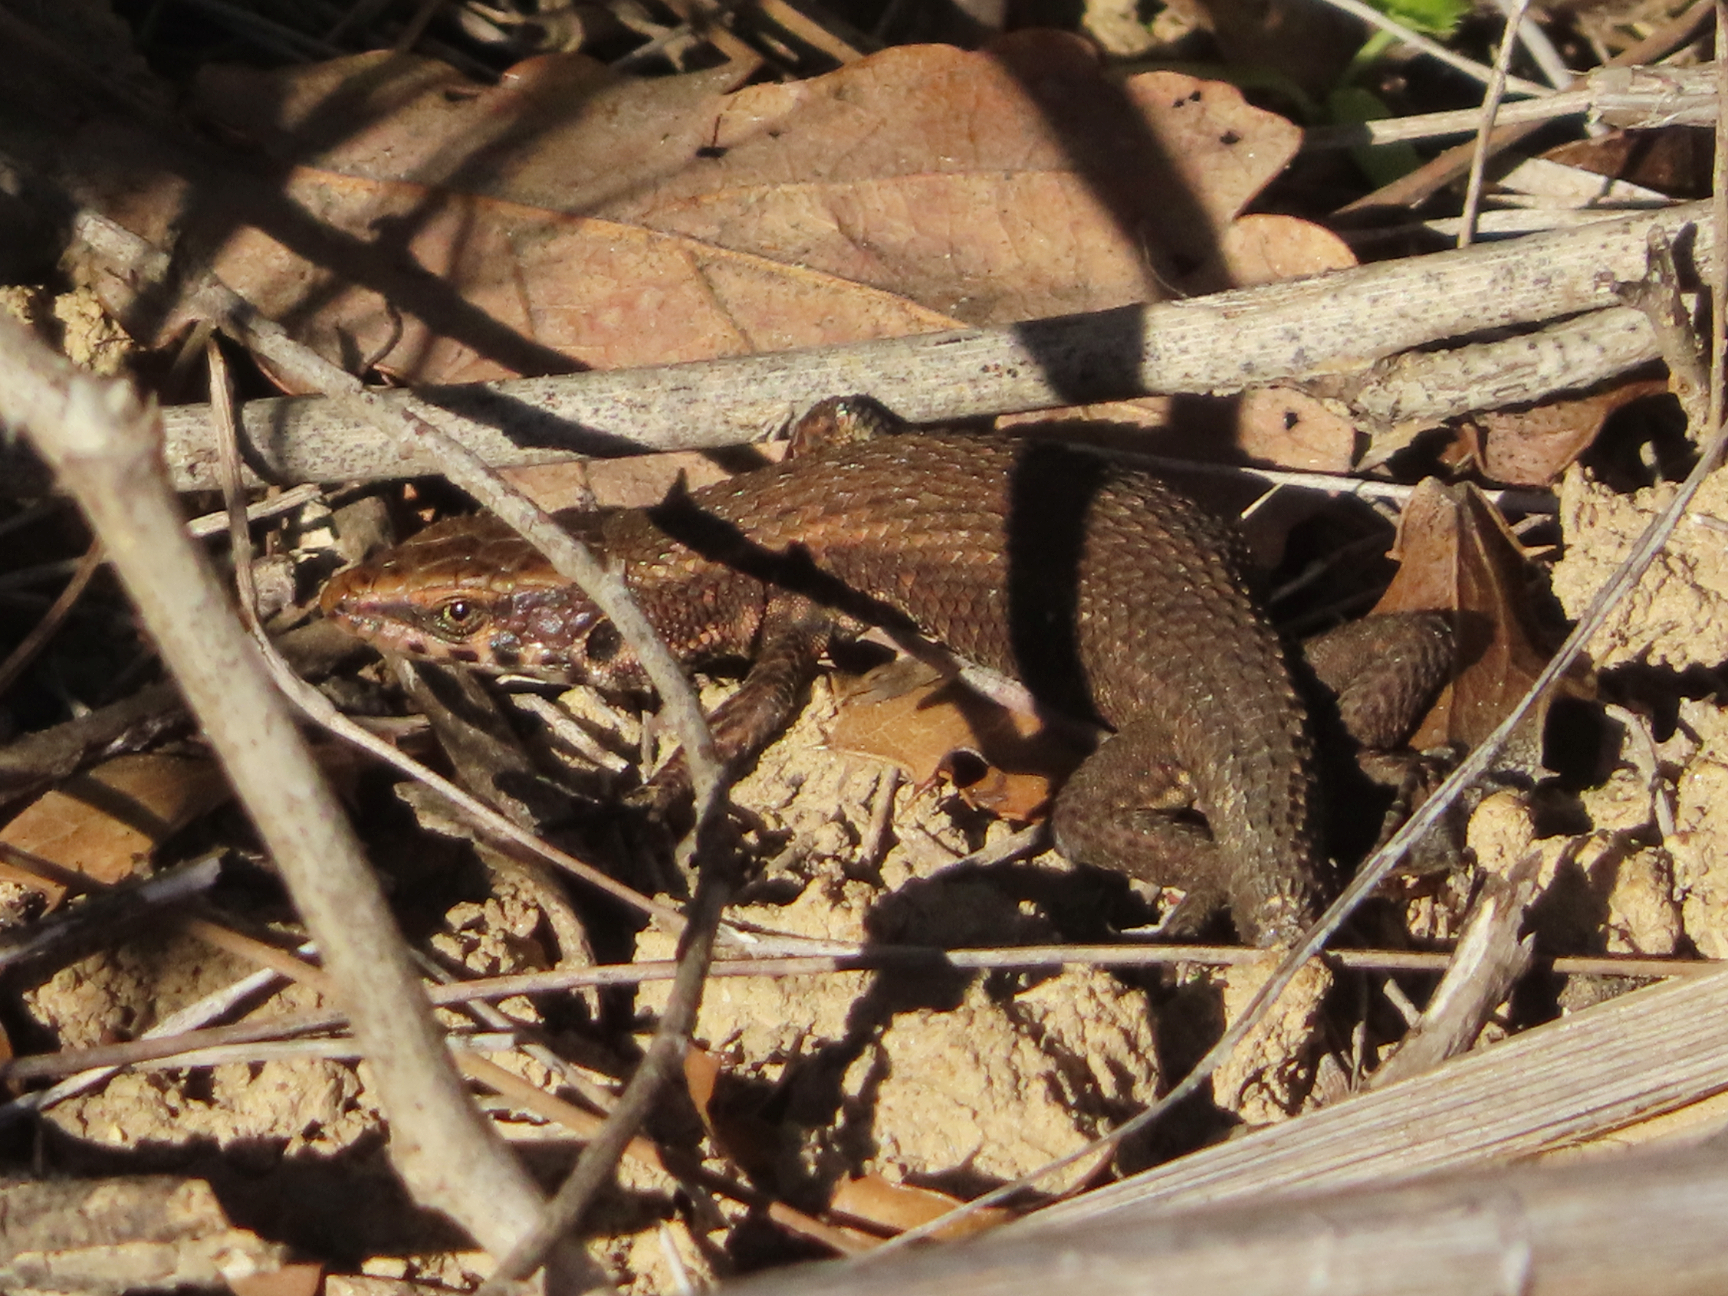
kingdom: Animalia
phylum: Chordata
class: Squamata
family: Lacertidae
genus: Algyroides
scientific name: Algyroides moreoticus
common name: Greek algyroides
